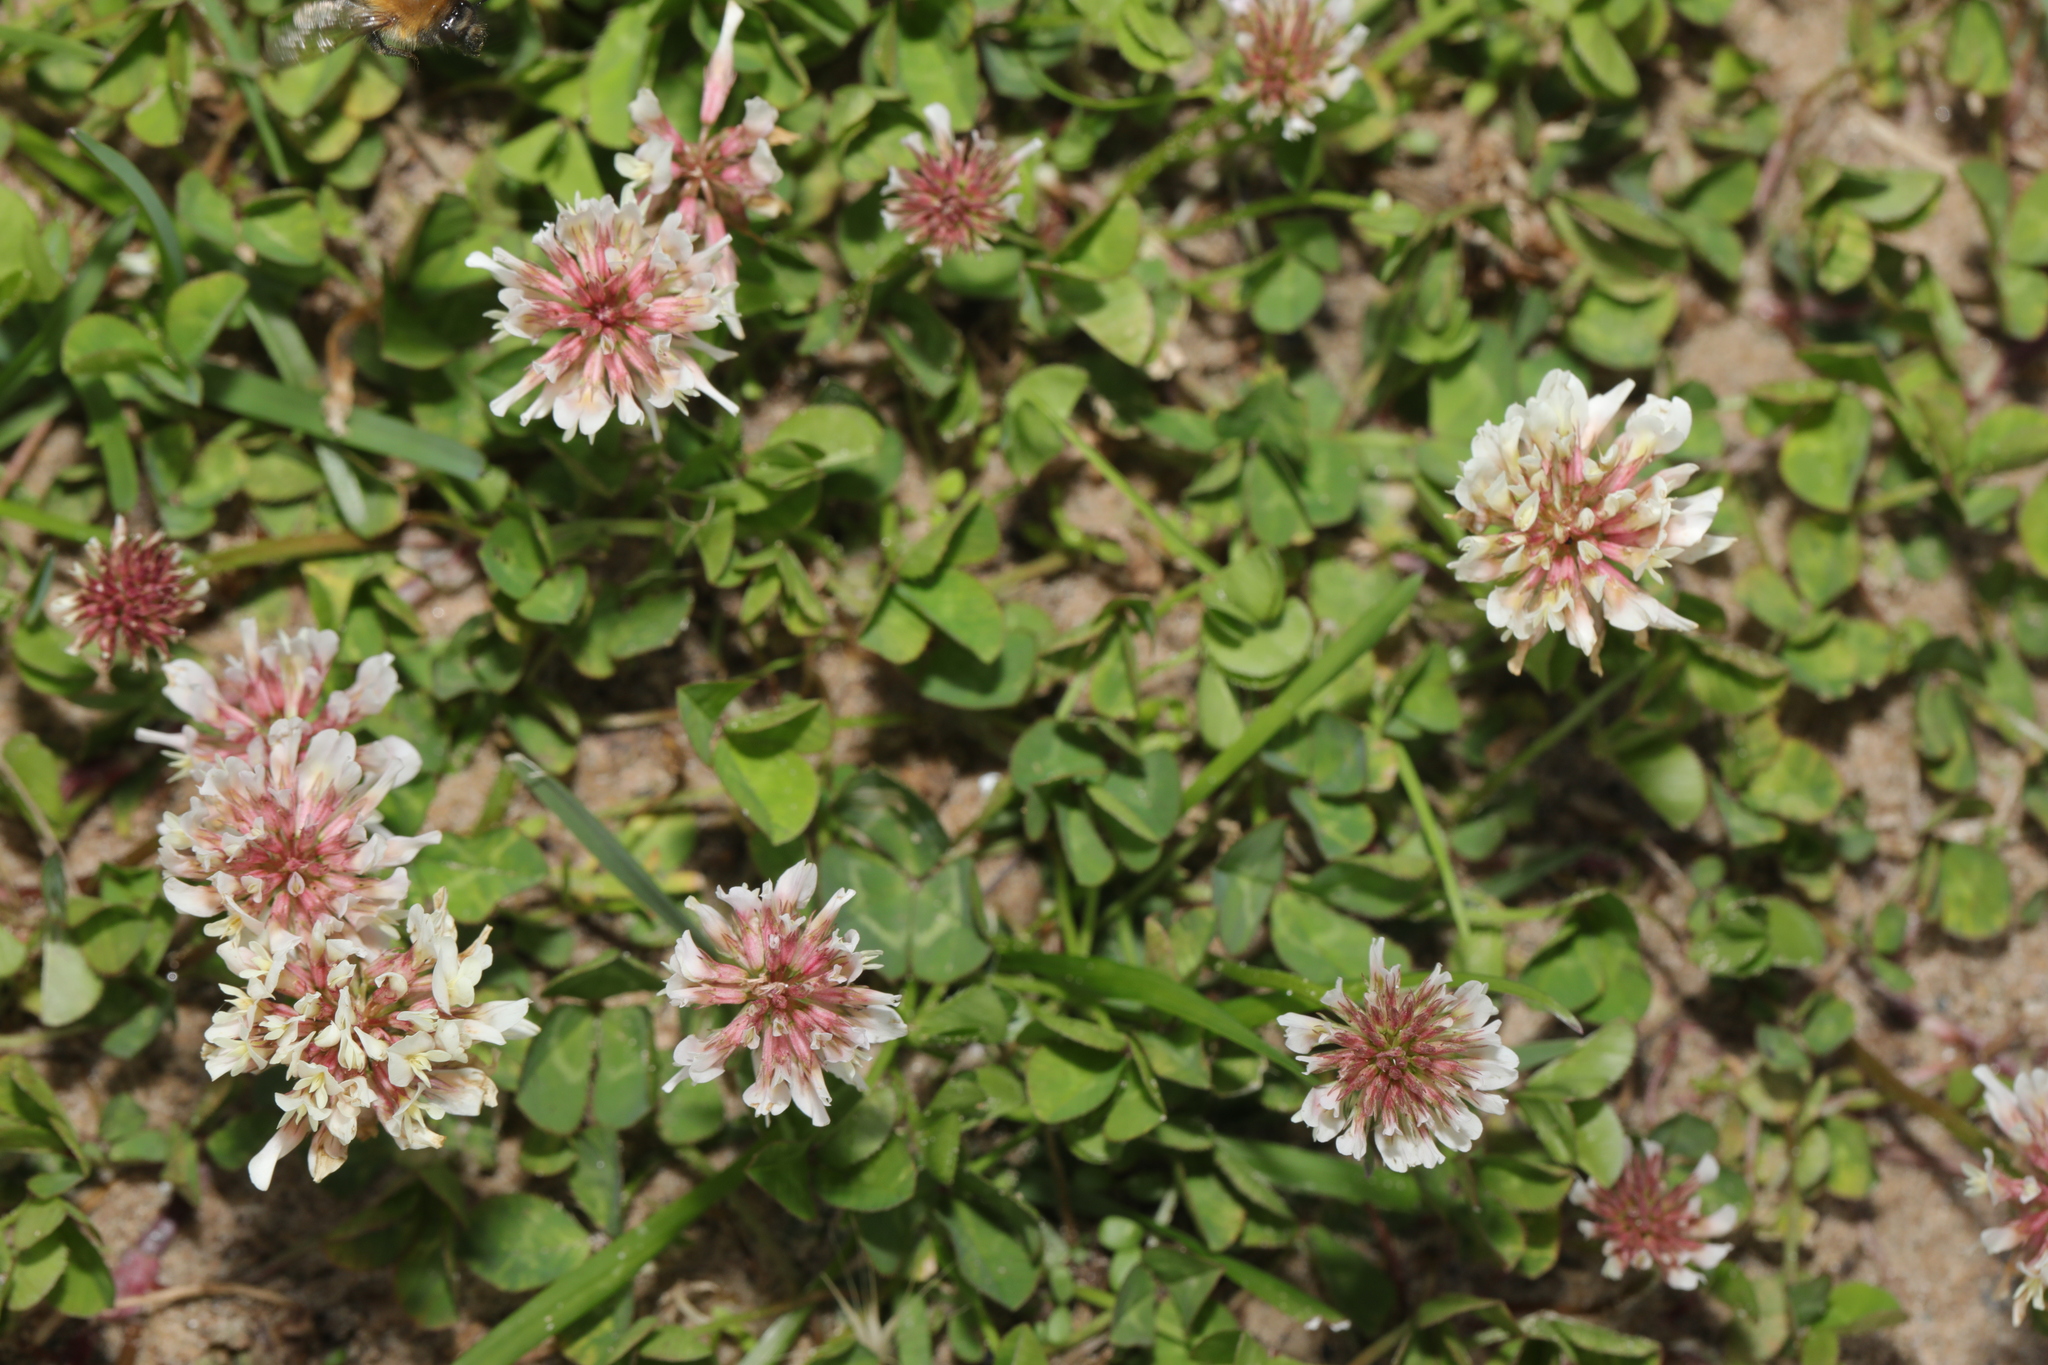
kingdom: Plantae
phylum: Tracheophyta
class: Magnoliopsida
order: Fabales
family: Fabaceae
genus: Trifolium
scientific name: Trifolium repens
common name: White clover
